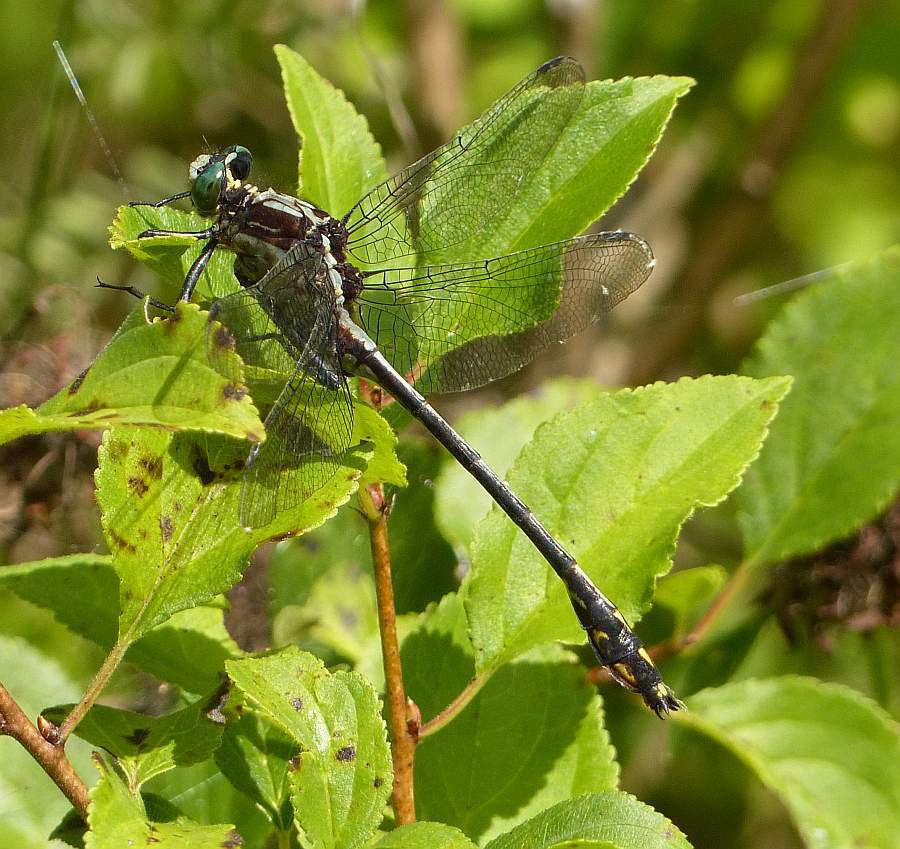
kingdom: Animalia
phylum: Arthropoda
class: Insecta
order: Odonata
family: Gomphidae
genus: Dromogomphus
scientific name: Dromogomphus spinosus
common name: Black-shouldered spinyleg
